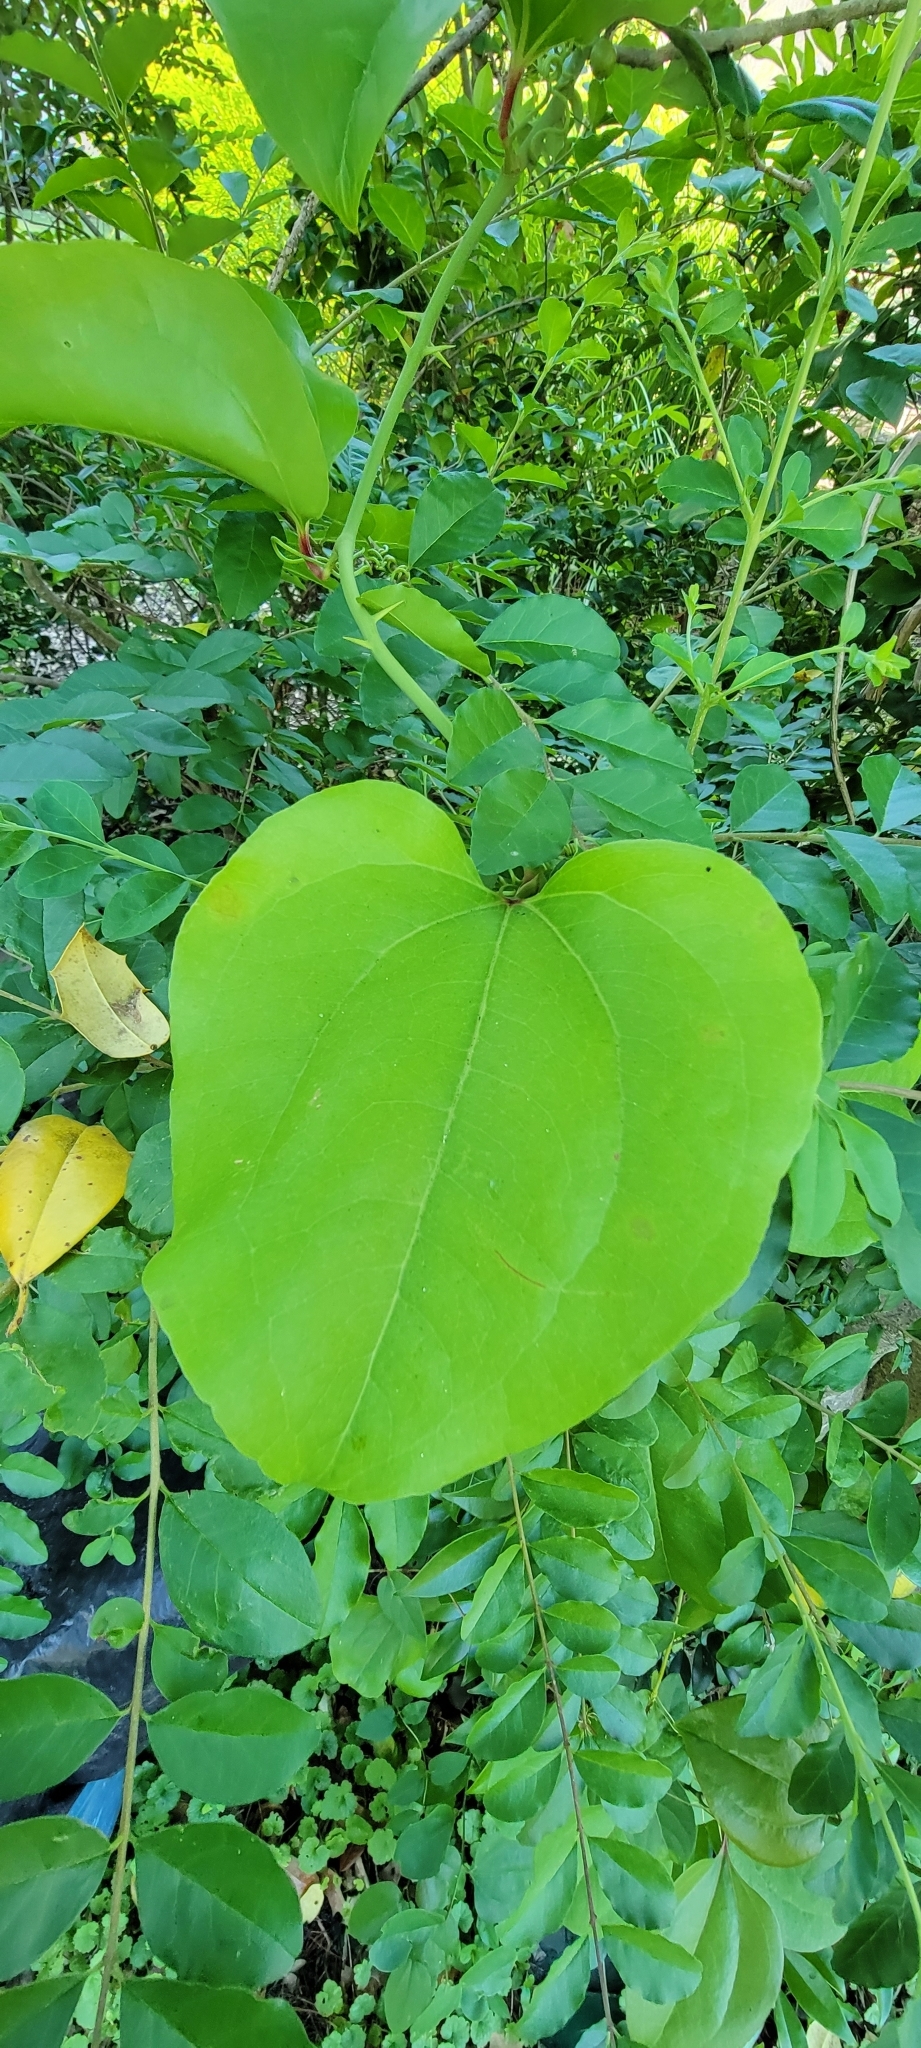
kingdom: Plantae
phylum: Tracheophyta
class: Liliopsida
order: Liliales
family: Smilacaceae
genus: Smilax
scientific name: Smilax rotundifolia
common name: Bullbriar
